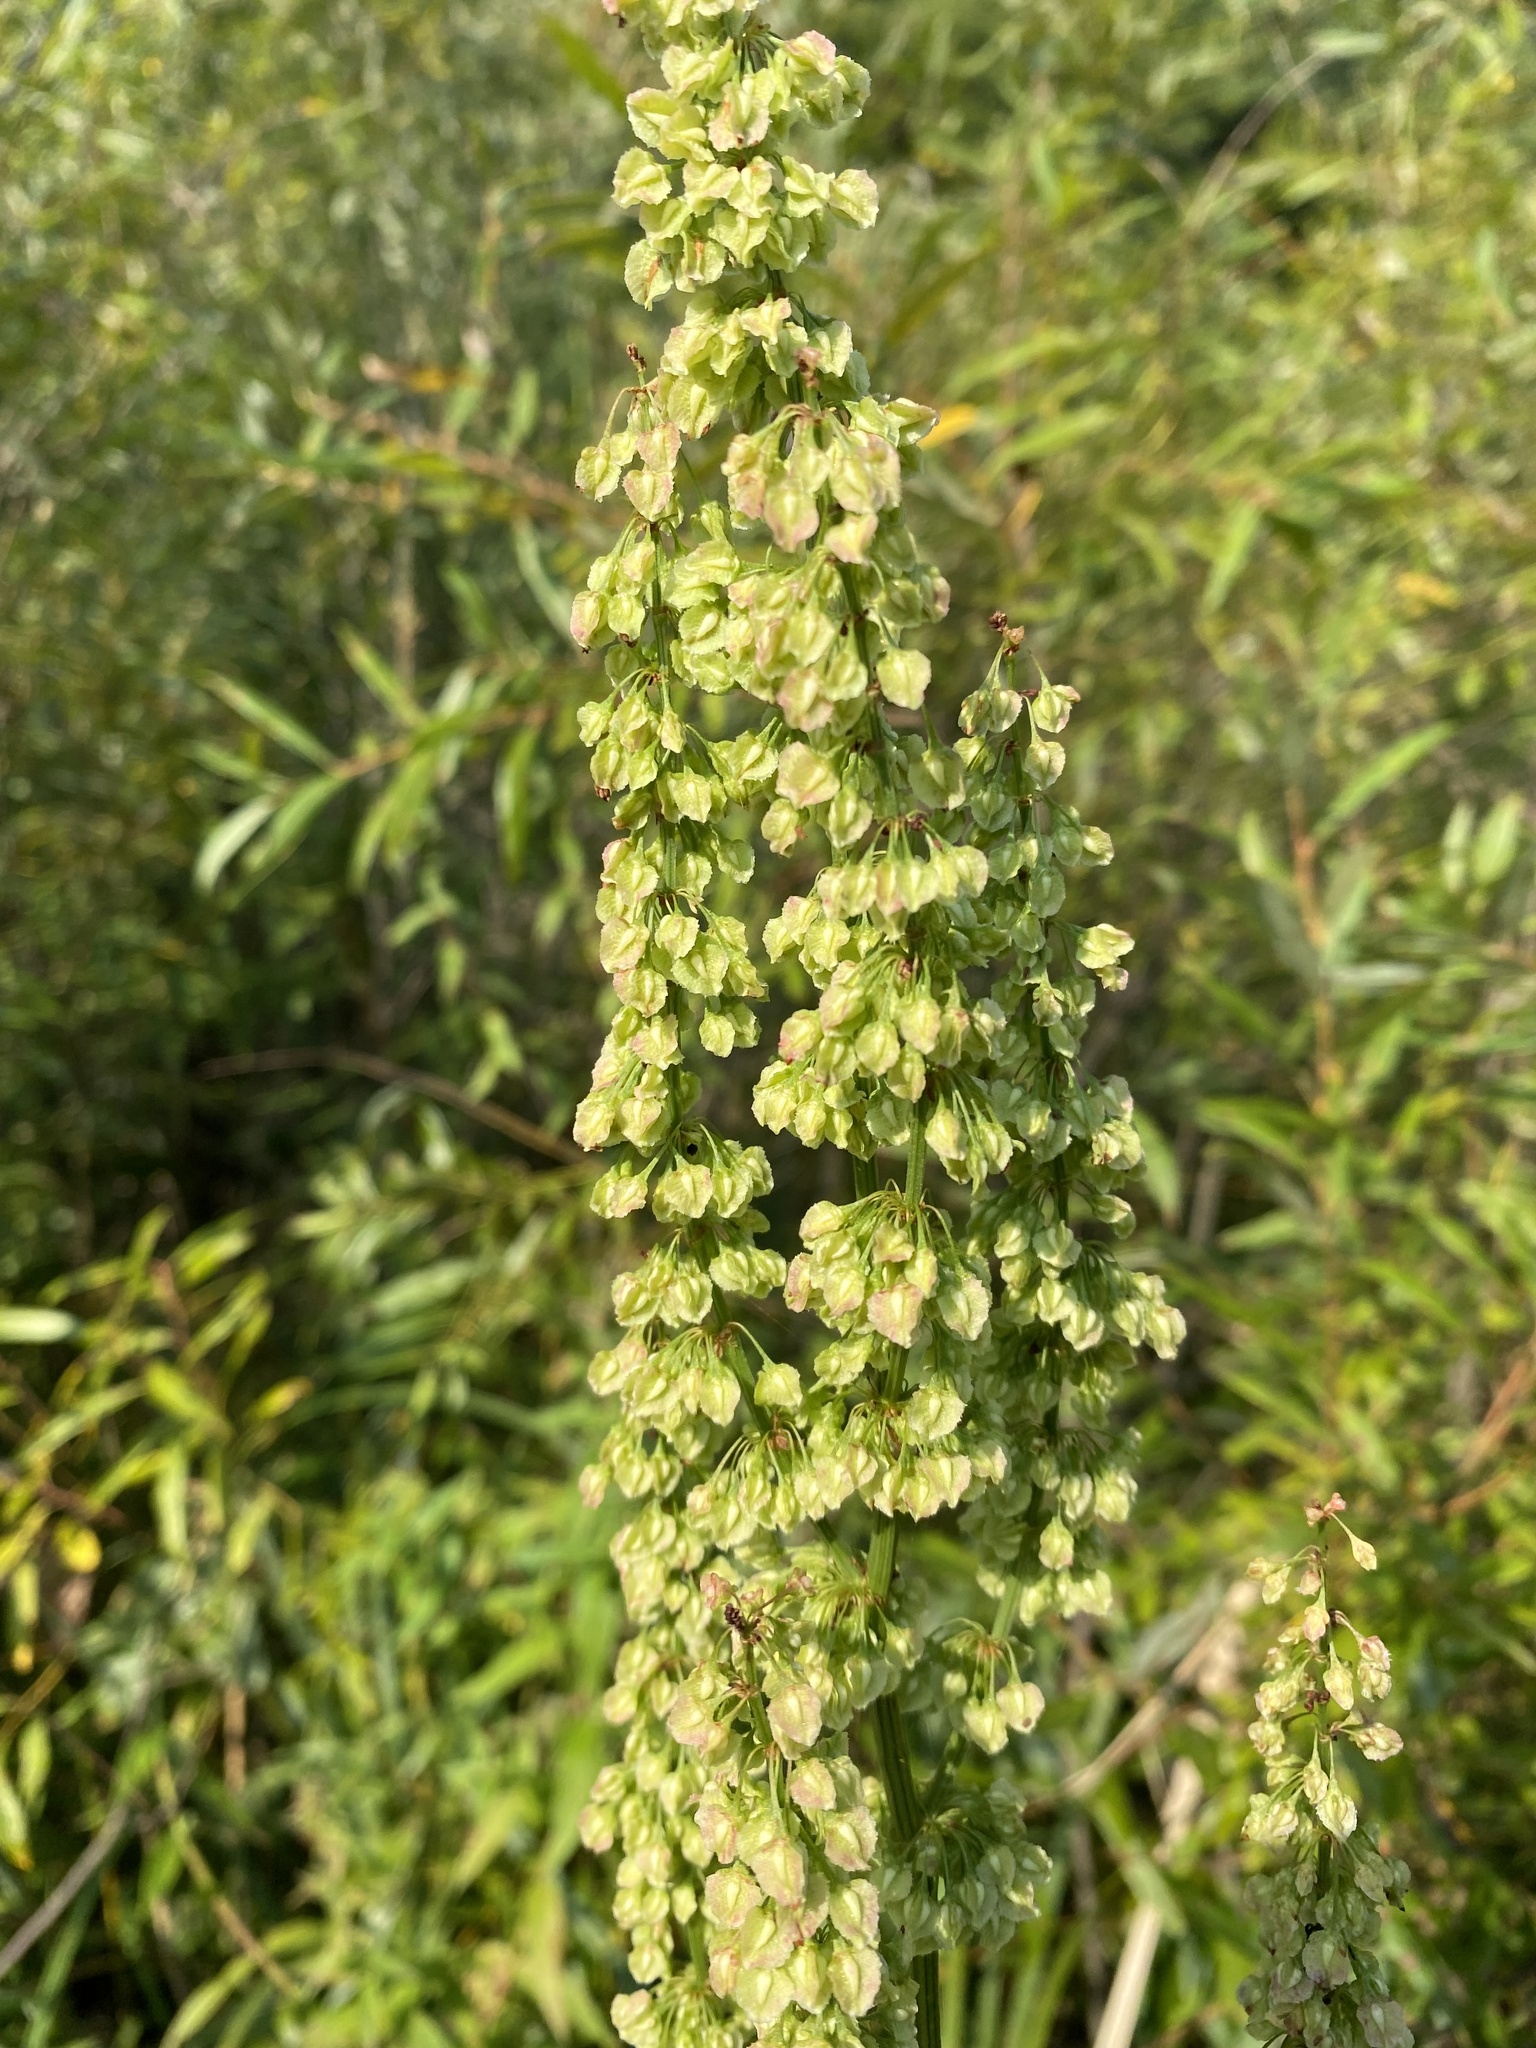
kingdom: Plantae
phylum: Tracheophyta
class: Magnoliopsida
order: Caryophyllales
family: Polygonaceae
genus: Rumex
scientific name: Rumex britannica
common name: British dock
